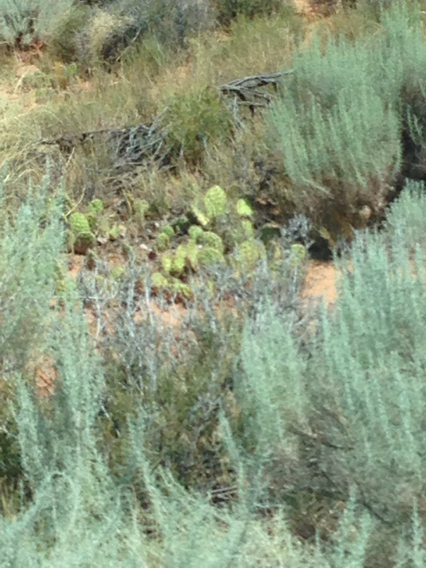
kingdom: Plantae
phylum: Tracheophyta
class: Magnoliopsida
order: Caryophyllales
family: Cactaceae
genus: Opuntia
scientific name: Opuntia
